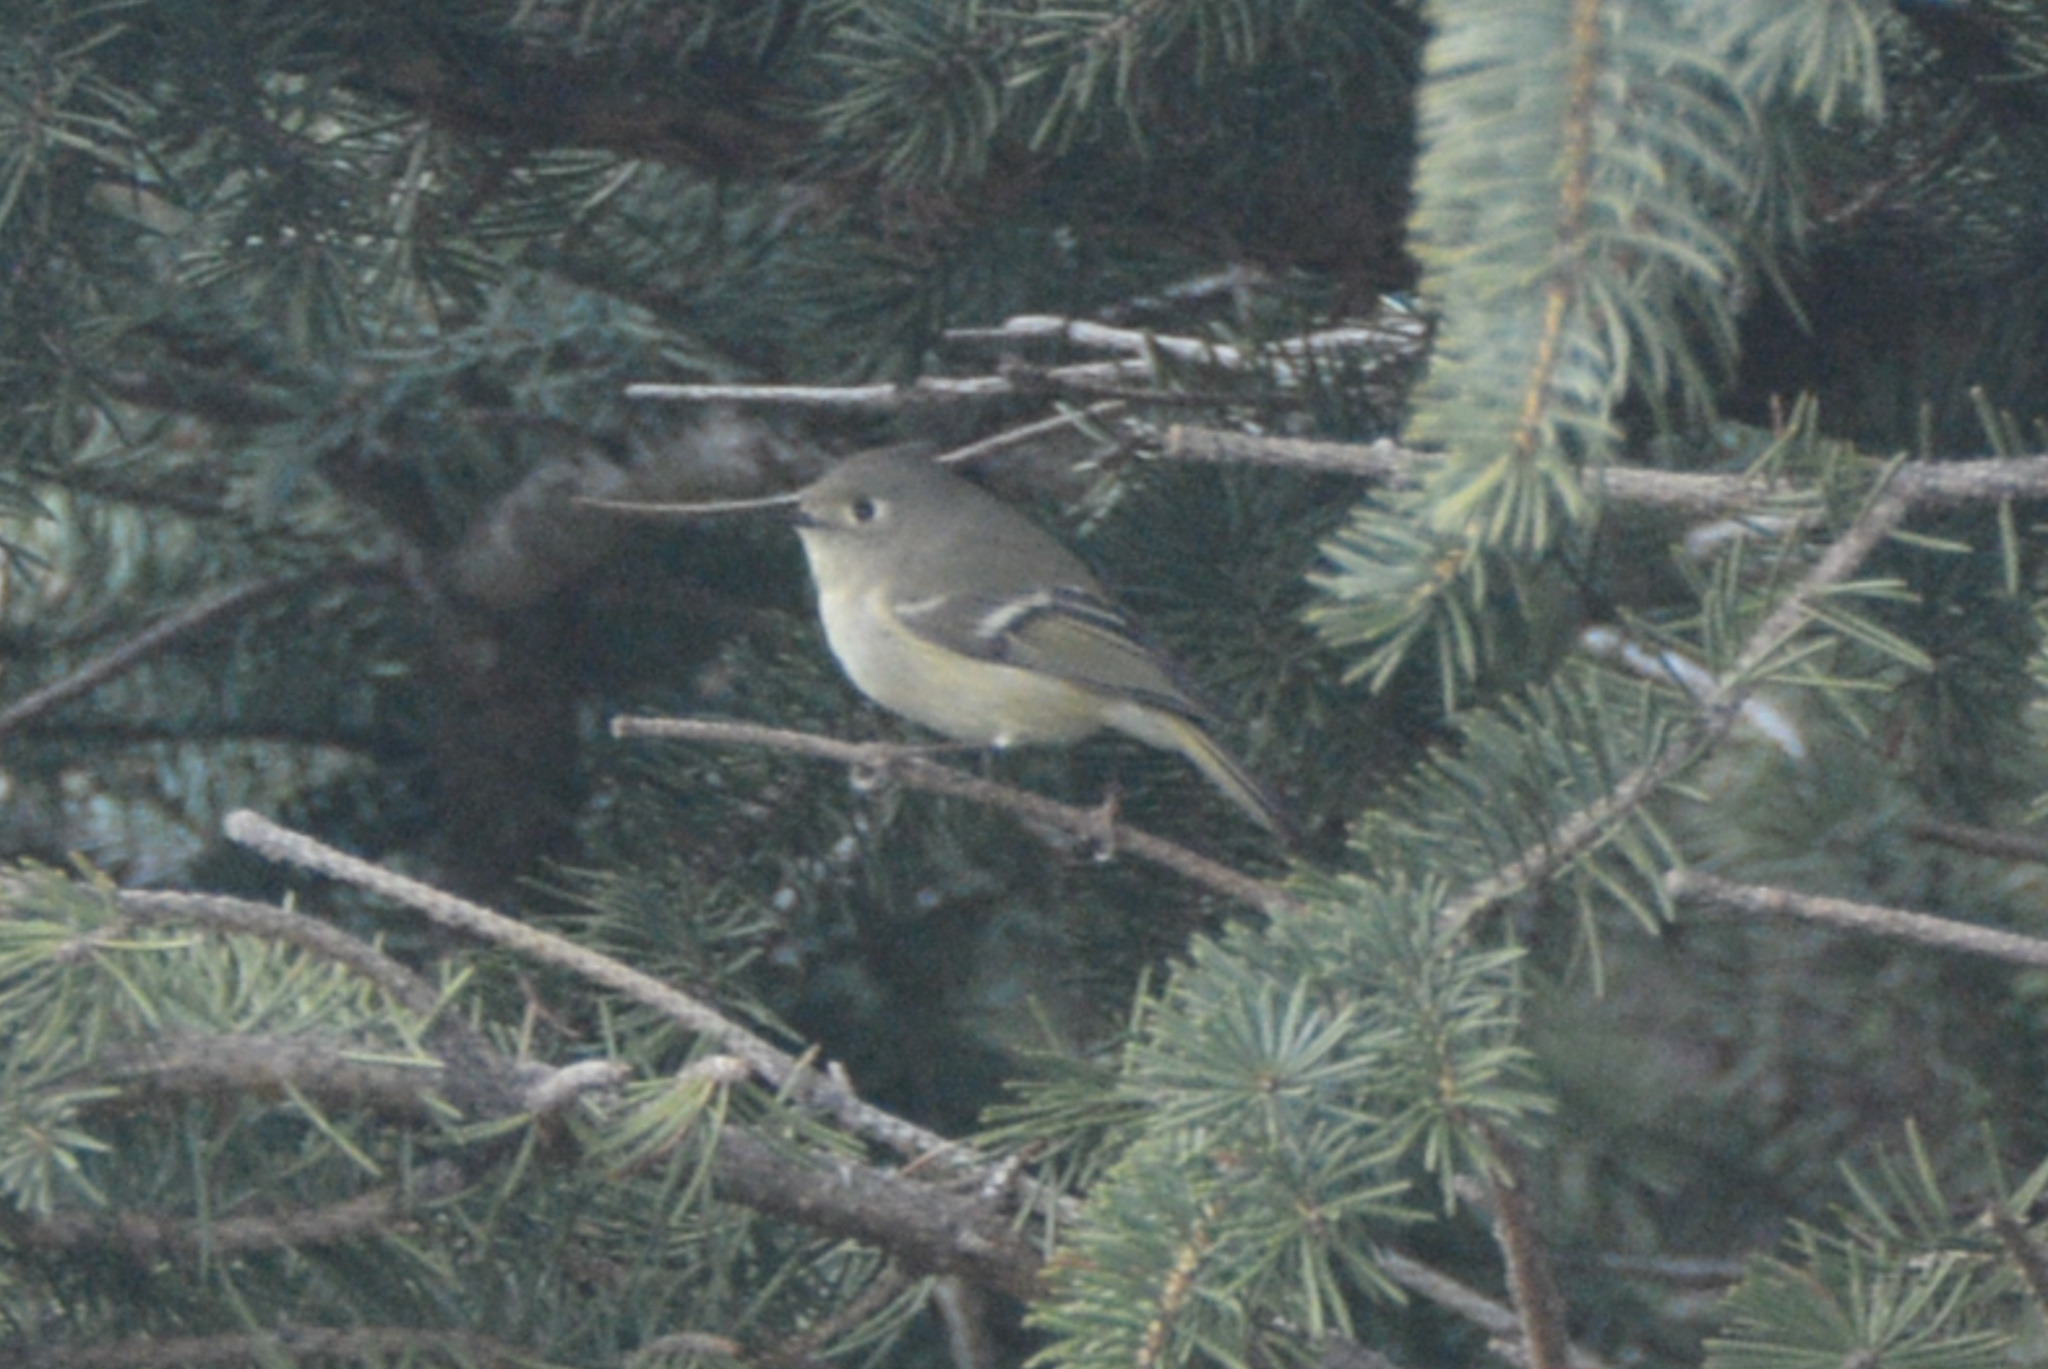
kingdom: Animalia
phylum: Chordata
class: Aves
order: Passeriformes
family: Regulidae
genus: Regulus
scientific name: Regulus calendula
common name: Ruby-crowned kinglet
